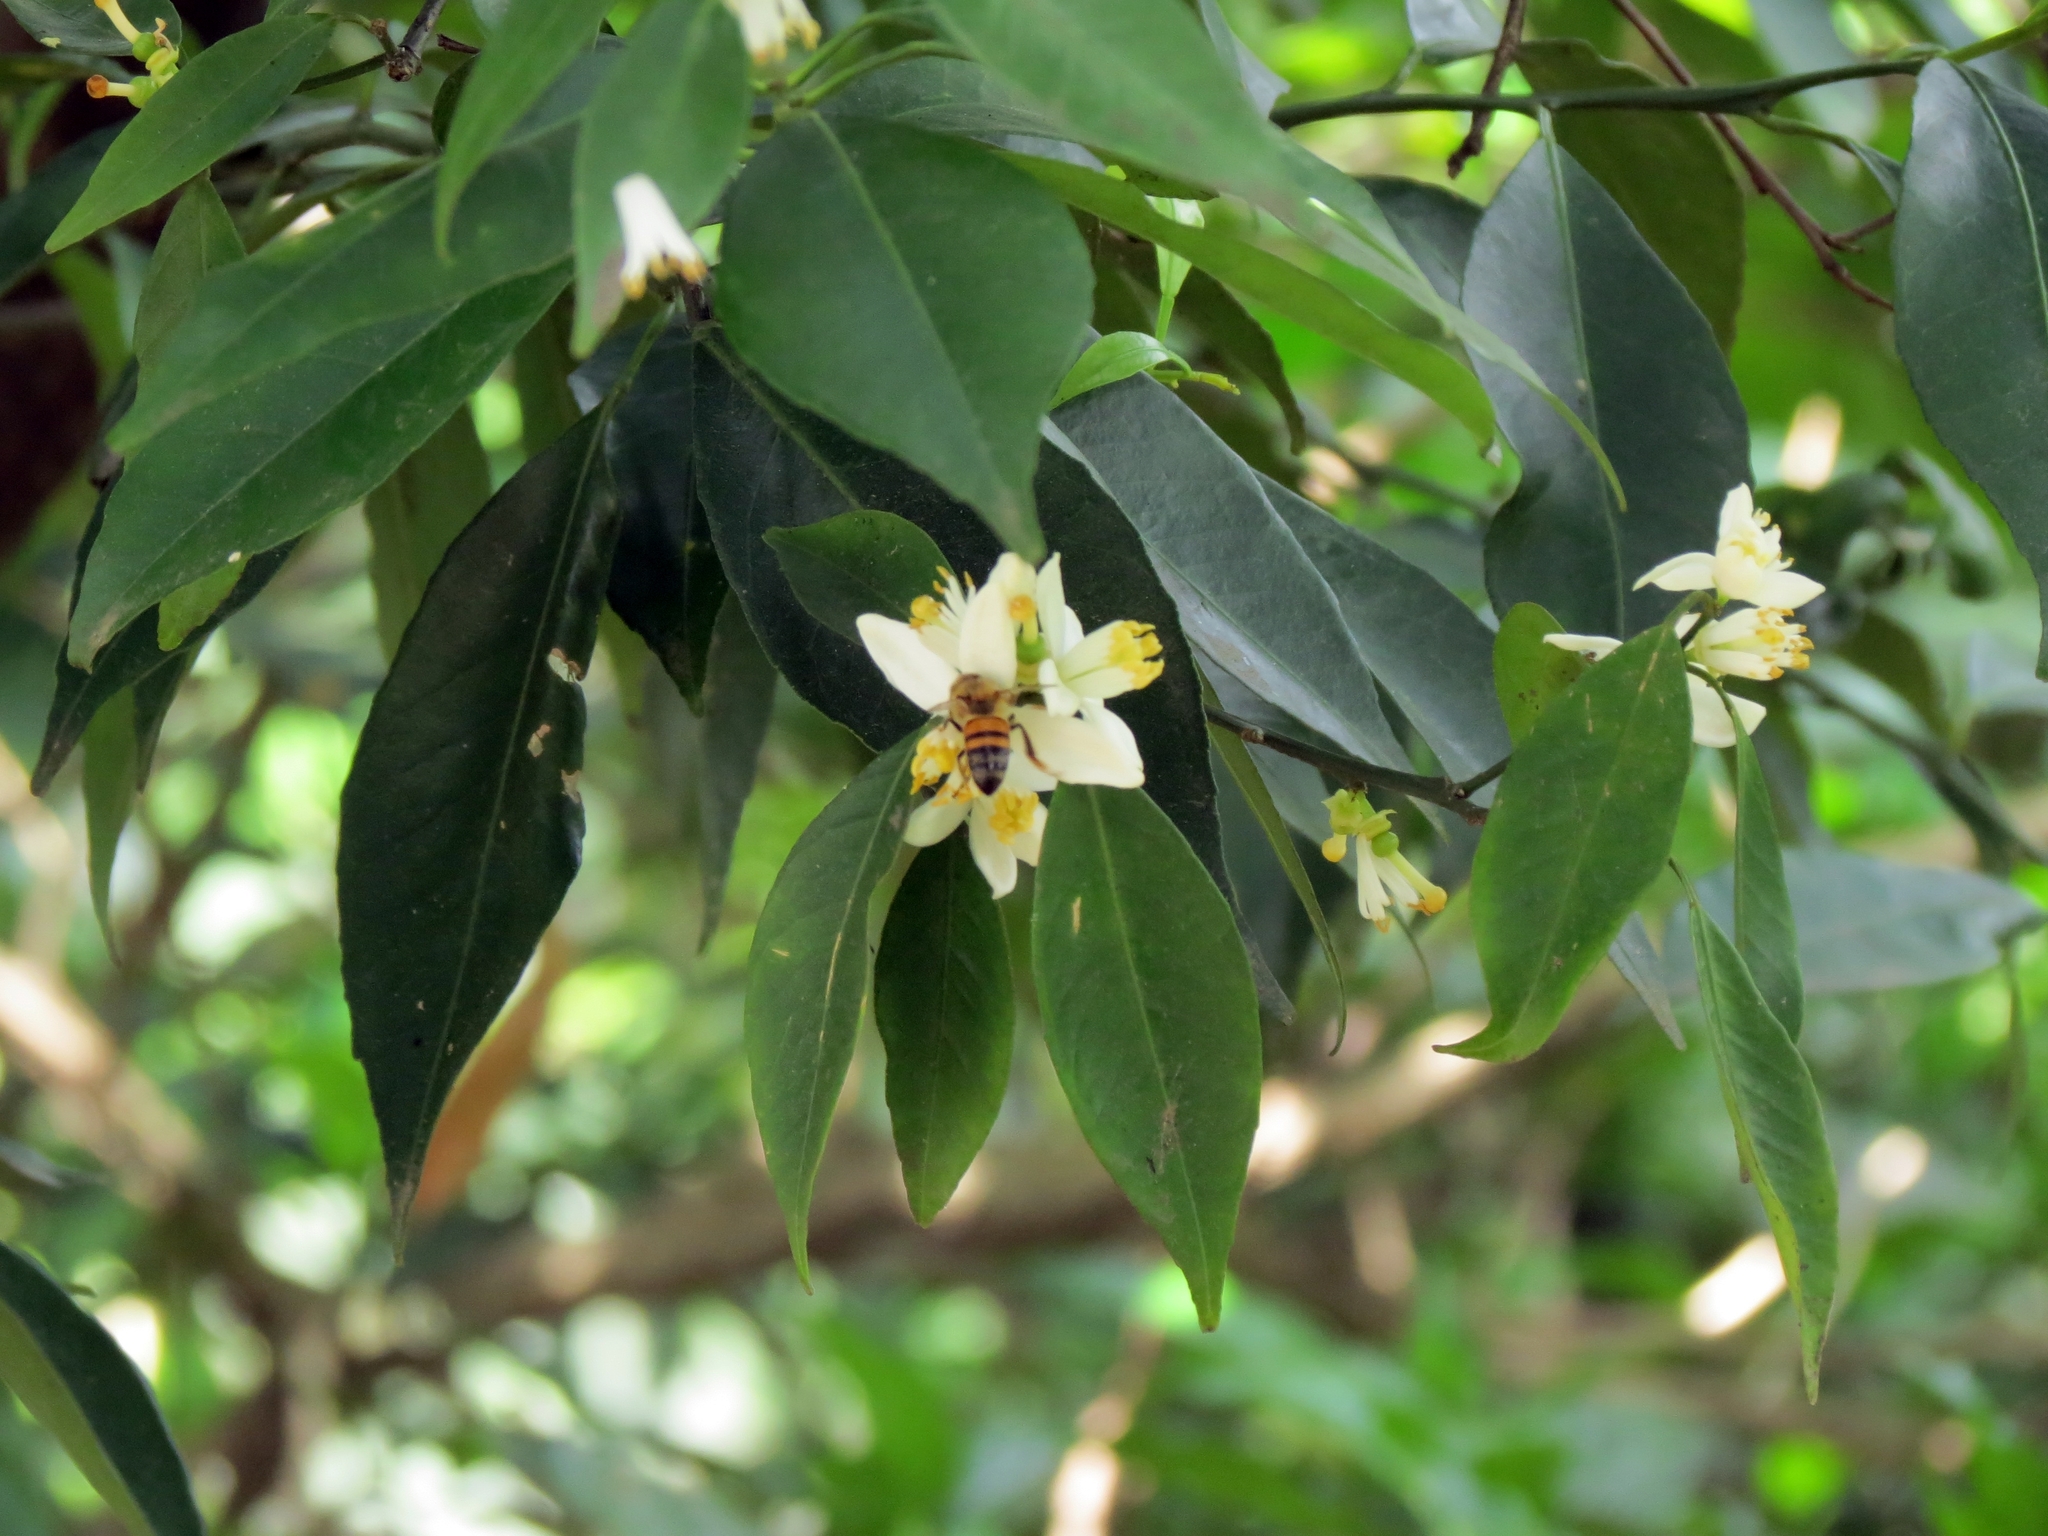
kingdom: Animalia
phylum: Arthropoda
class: Insecta
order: Hymenoptera
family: Apidae
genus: Apis
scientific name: Apis mellifera
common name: Honey bee
